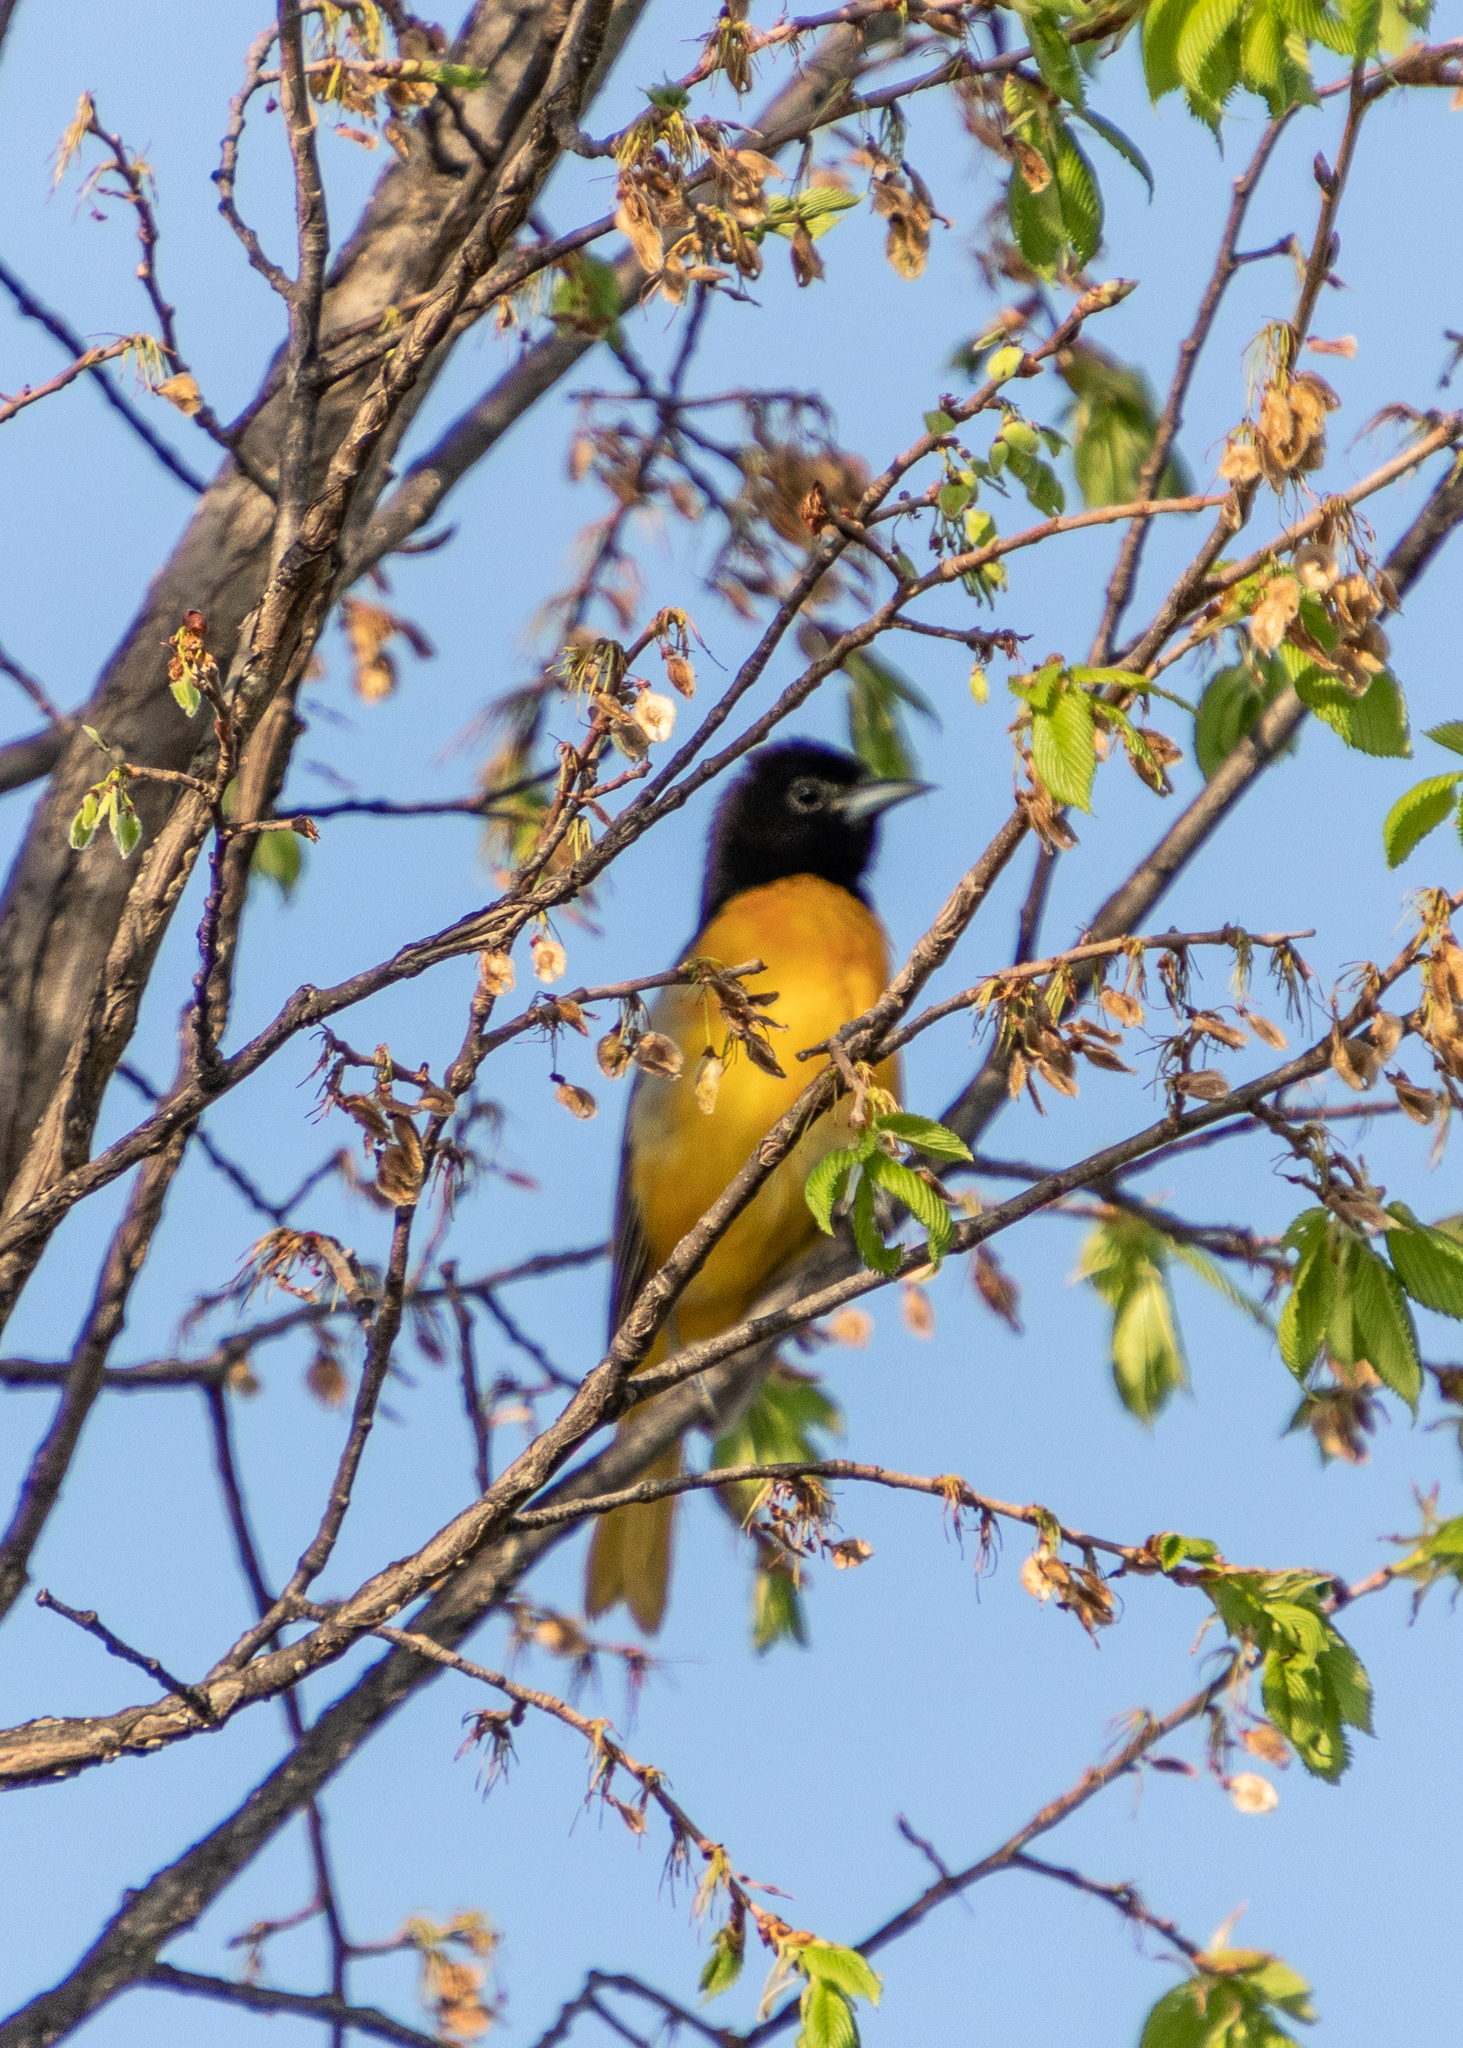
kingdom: Animalia
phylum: Chordata
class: Aves
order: Passeriformes
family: Icteridae
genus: Icterus
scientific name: Icterus galbula
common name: Baltimore oriole
